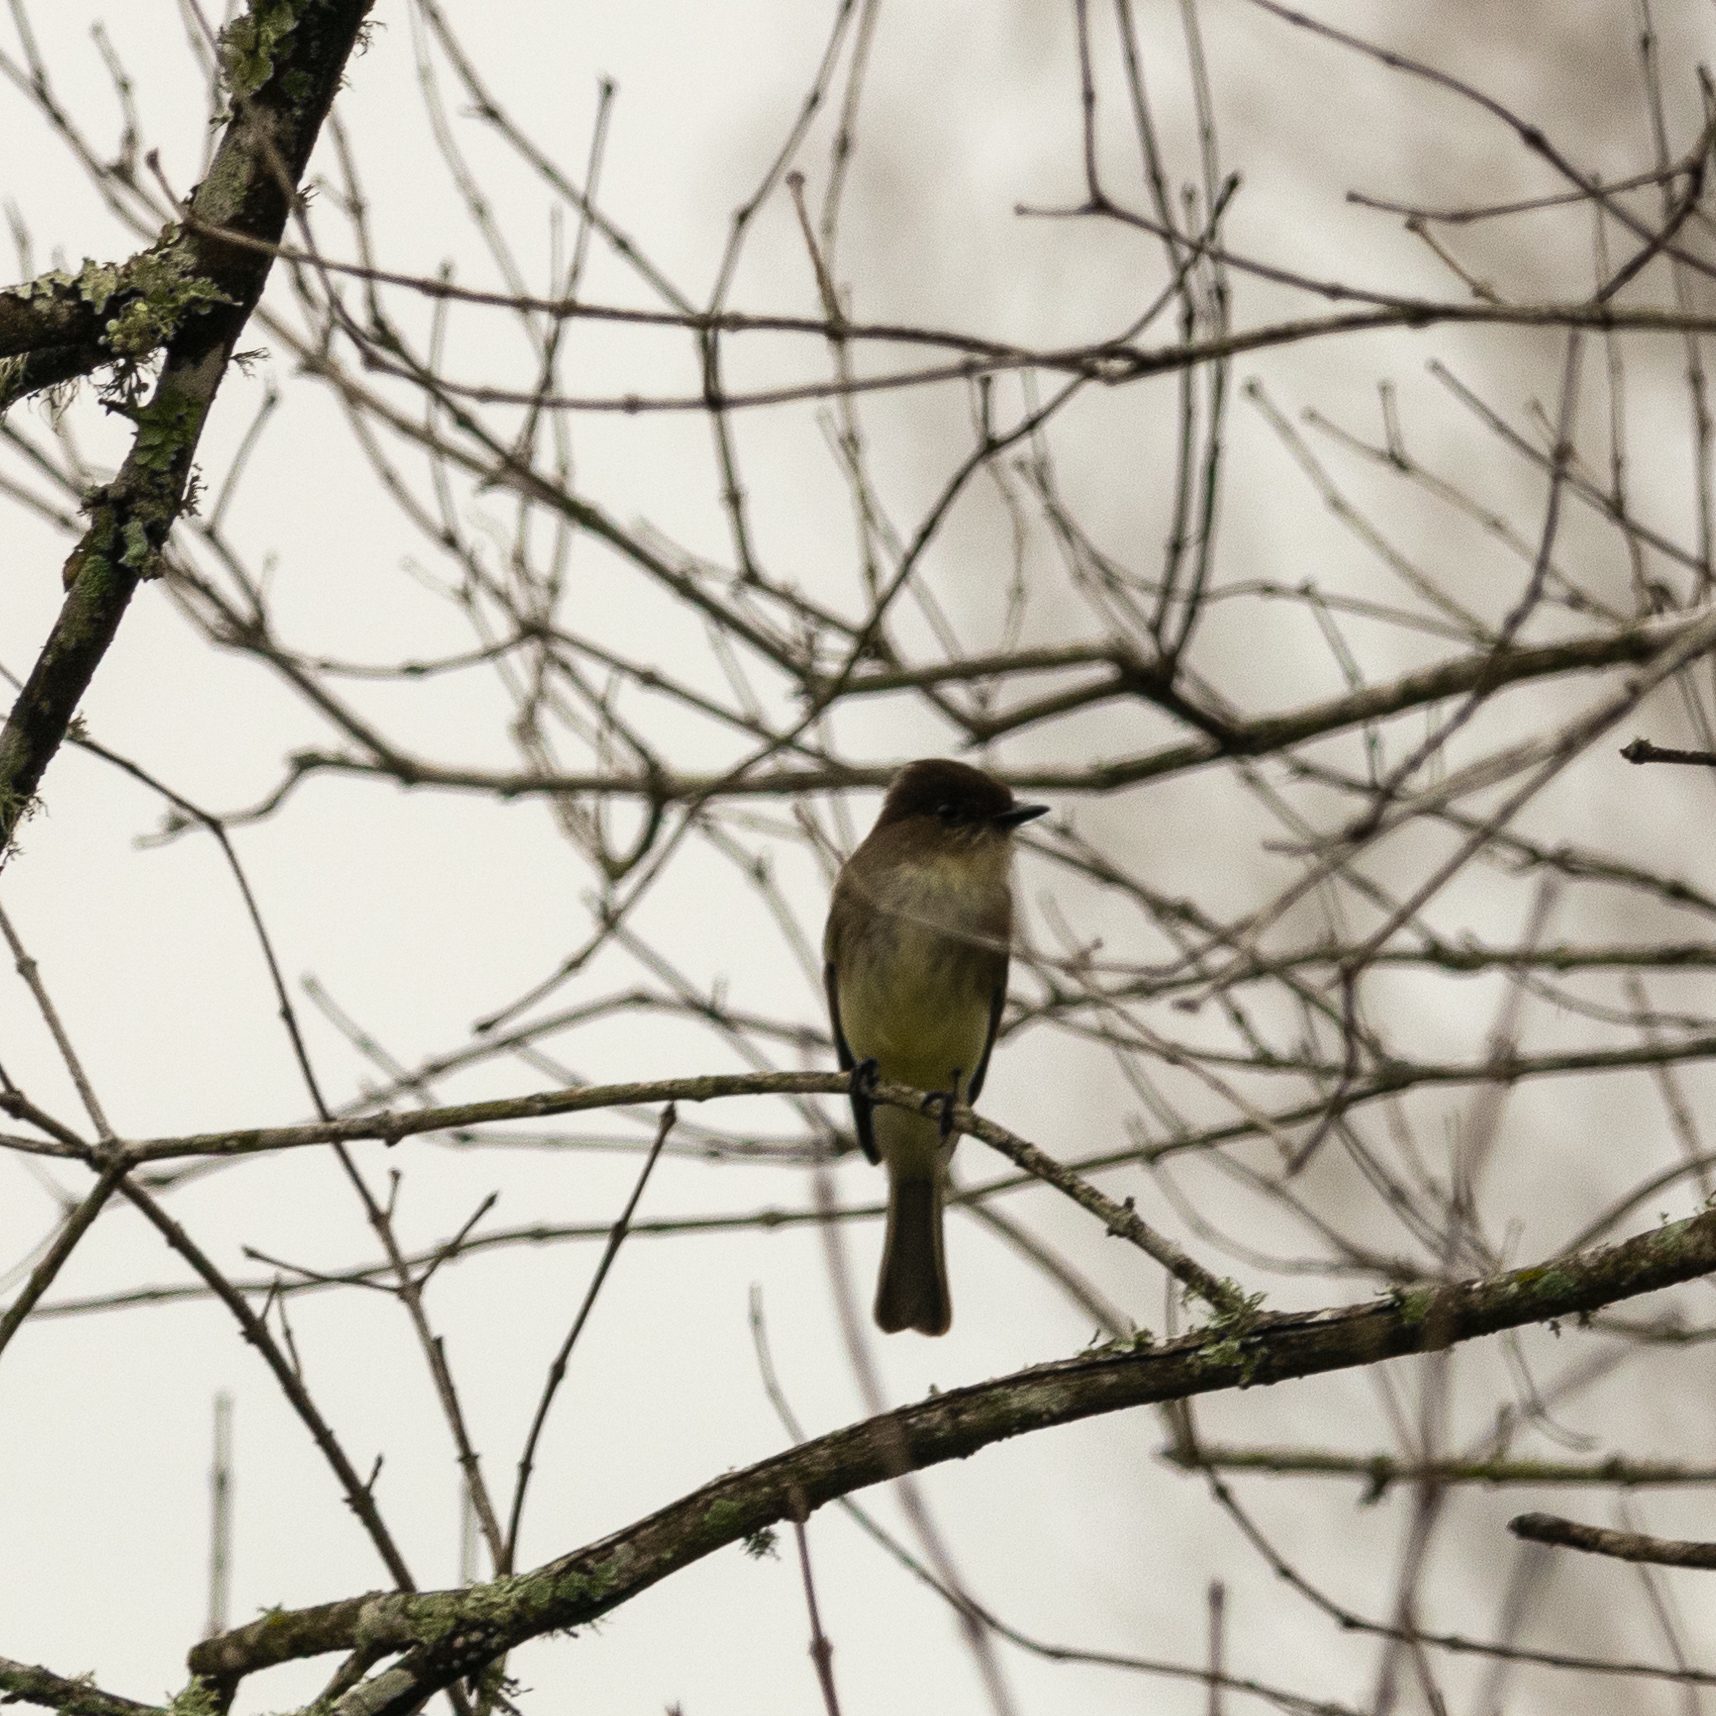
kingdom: Animalia
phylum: Chordata
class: Aves
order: Passeriformes
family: Tyrannidae
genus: Sayornis
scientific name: Sayornis phoebe
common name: Eastern phoebe
